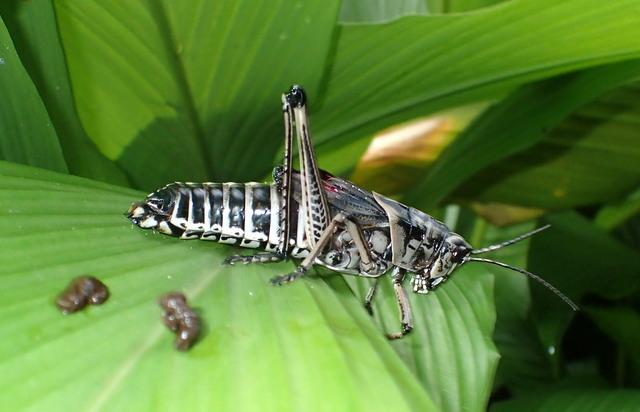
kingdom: Animalia
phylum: Arthropoda
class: Insecta
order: Orthoptera
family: Romaleidae
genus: Romalea
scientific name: Romalea microptera
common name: Eastern lubber grasshopper
